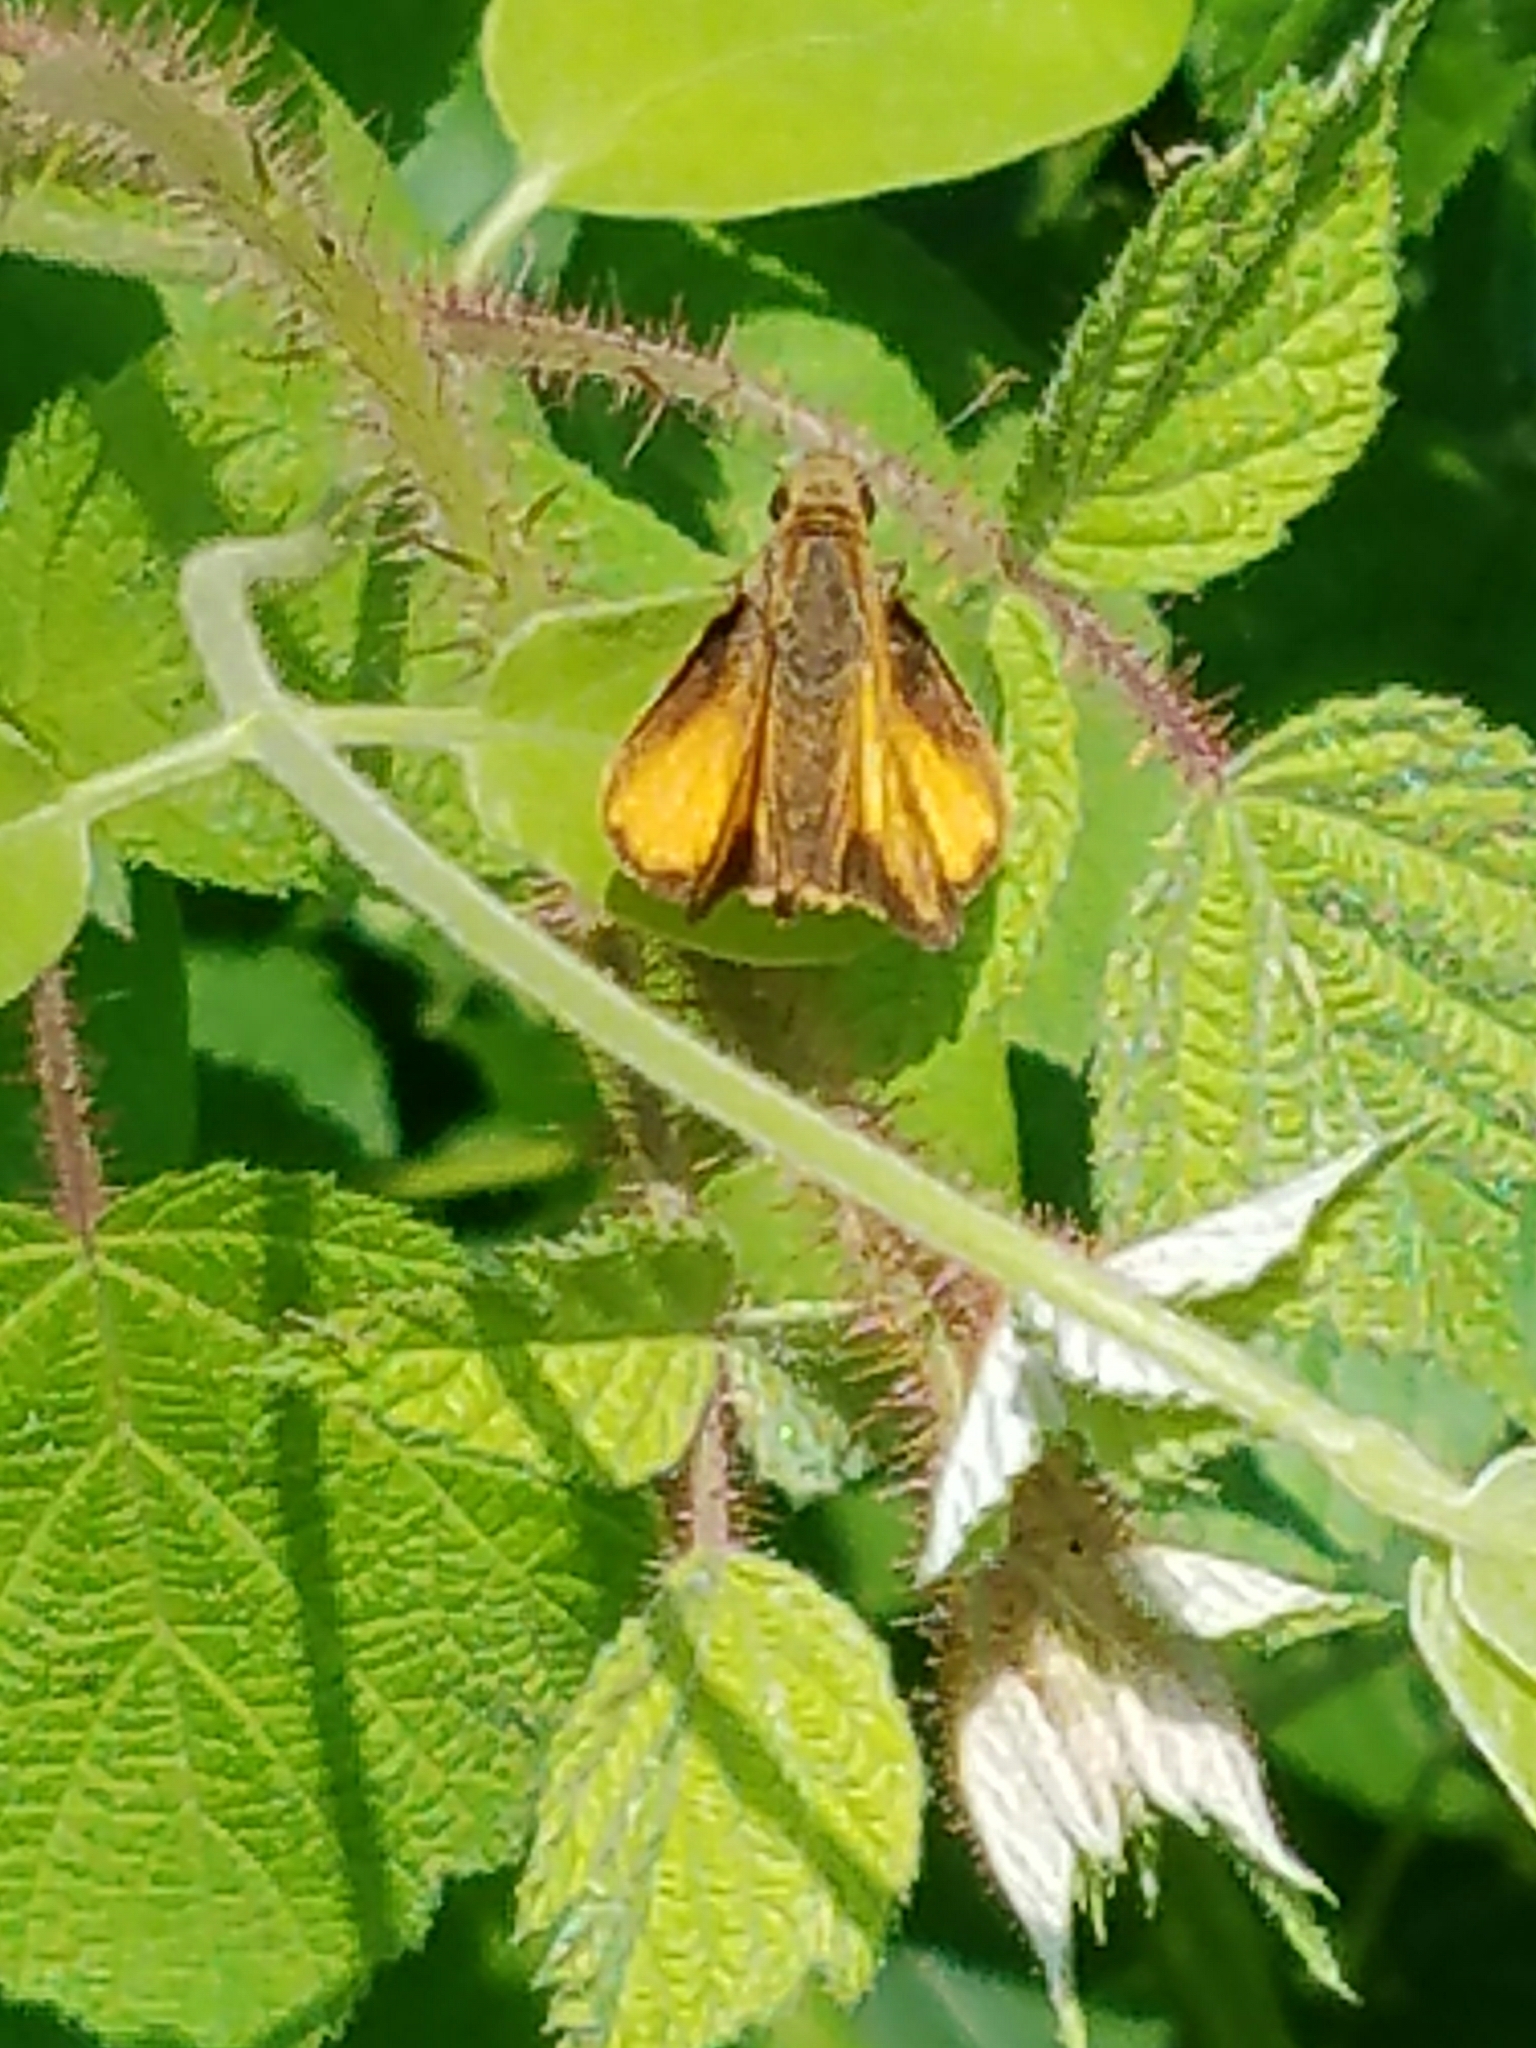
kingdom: Animalia
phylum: Arthropoda
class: Insecta
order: Lepidoptera
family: Hesperiidae
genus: Lon
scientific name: Lon zabulon
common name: Zabulon skipper
